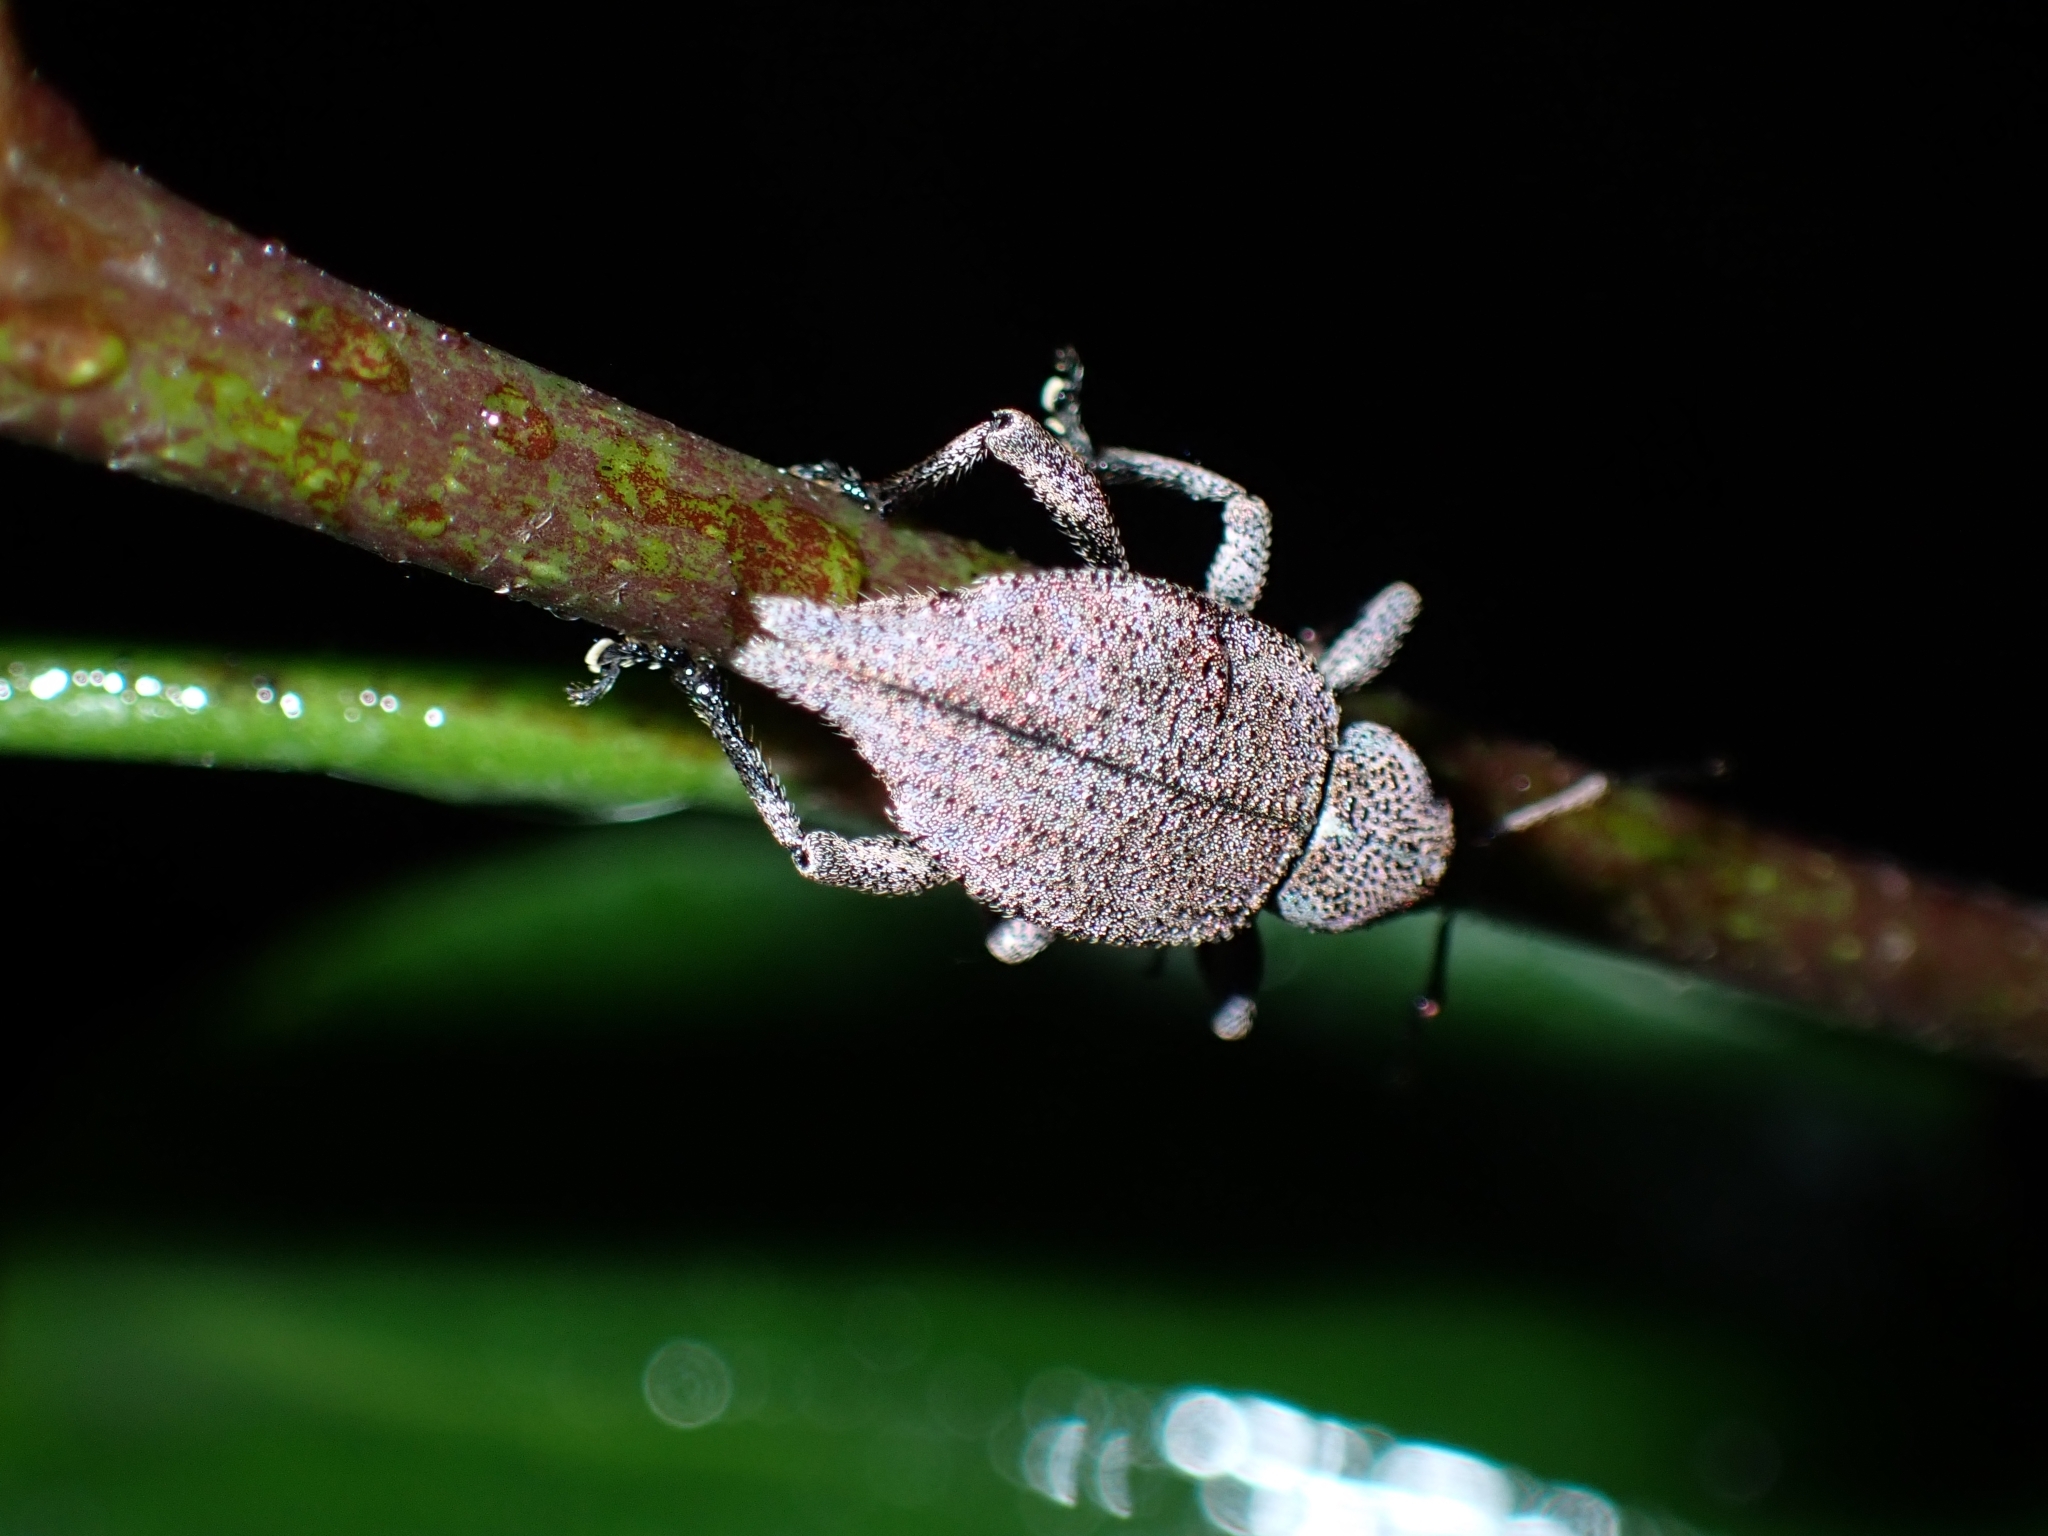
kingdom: Animalia
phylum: Arthropoda
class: Insecta
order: Coleoptera
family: Curculionidae
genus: Elytrurus
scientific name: Elytrurus marginatus
